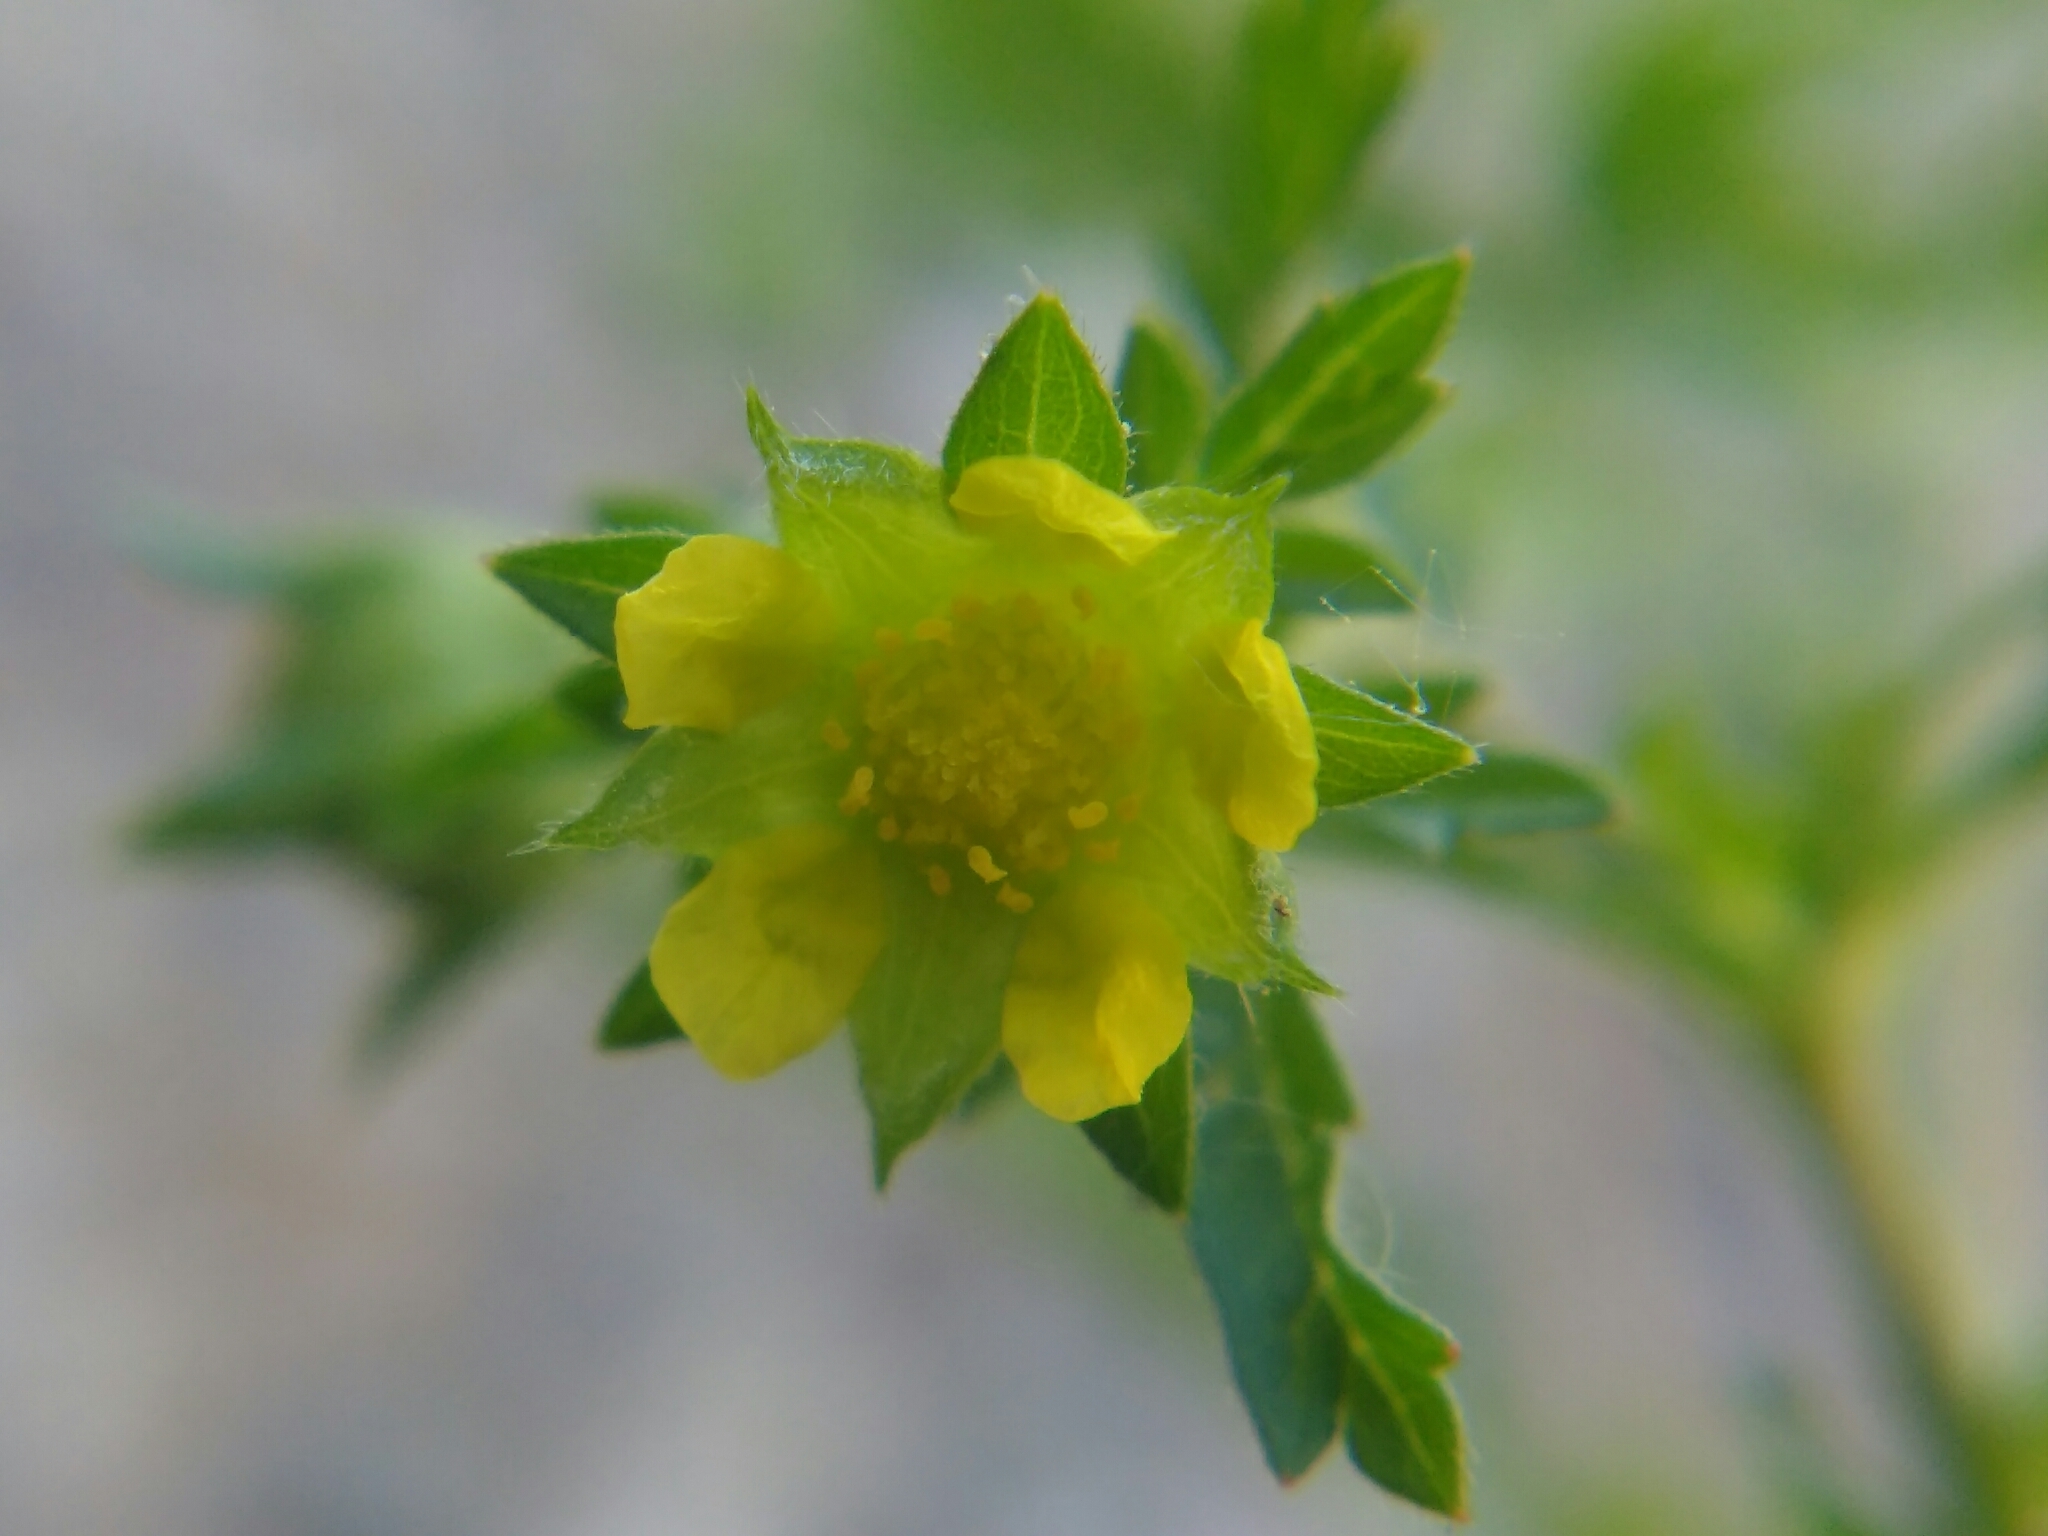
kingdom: Plantae
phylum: Tracheophyta
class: Magnoliopsida
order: Rosales
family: Rosaceae
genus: Potentilla
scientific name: Potentilla supina
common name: Prostrate cinquefoil
